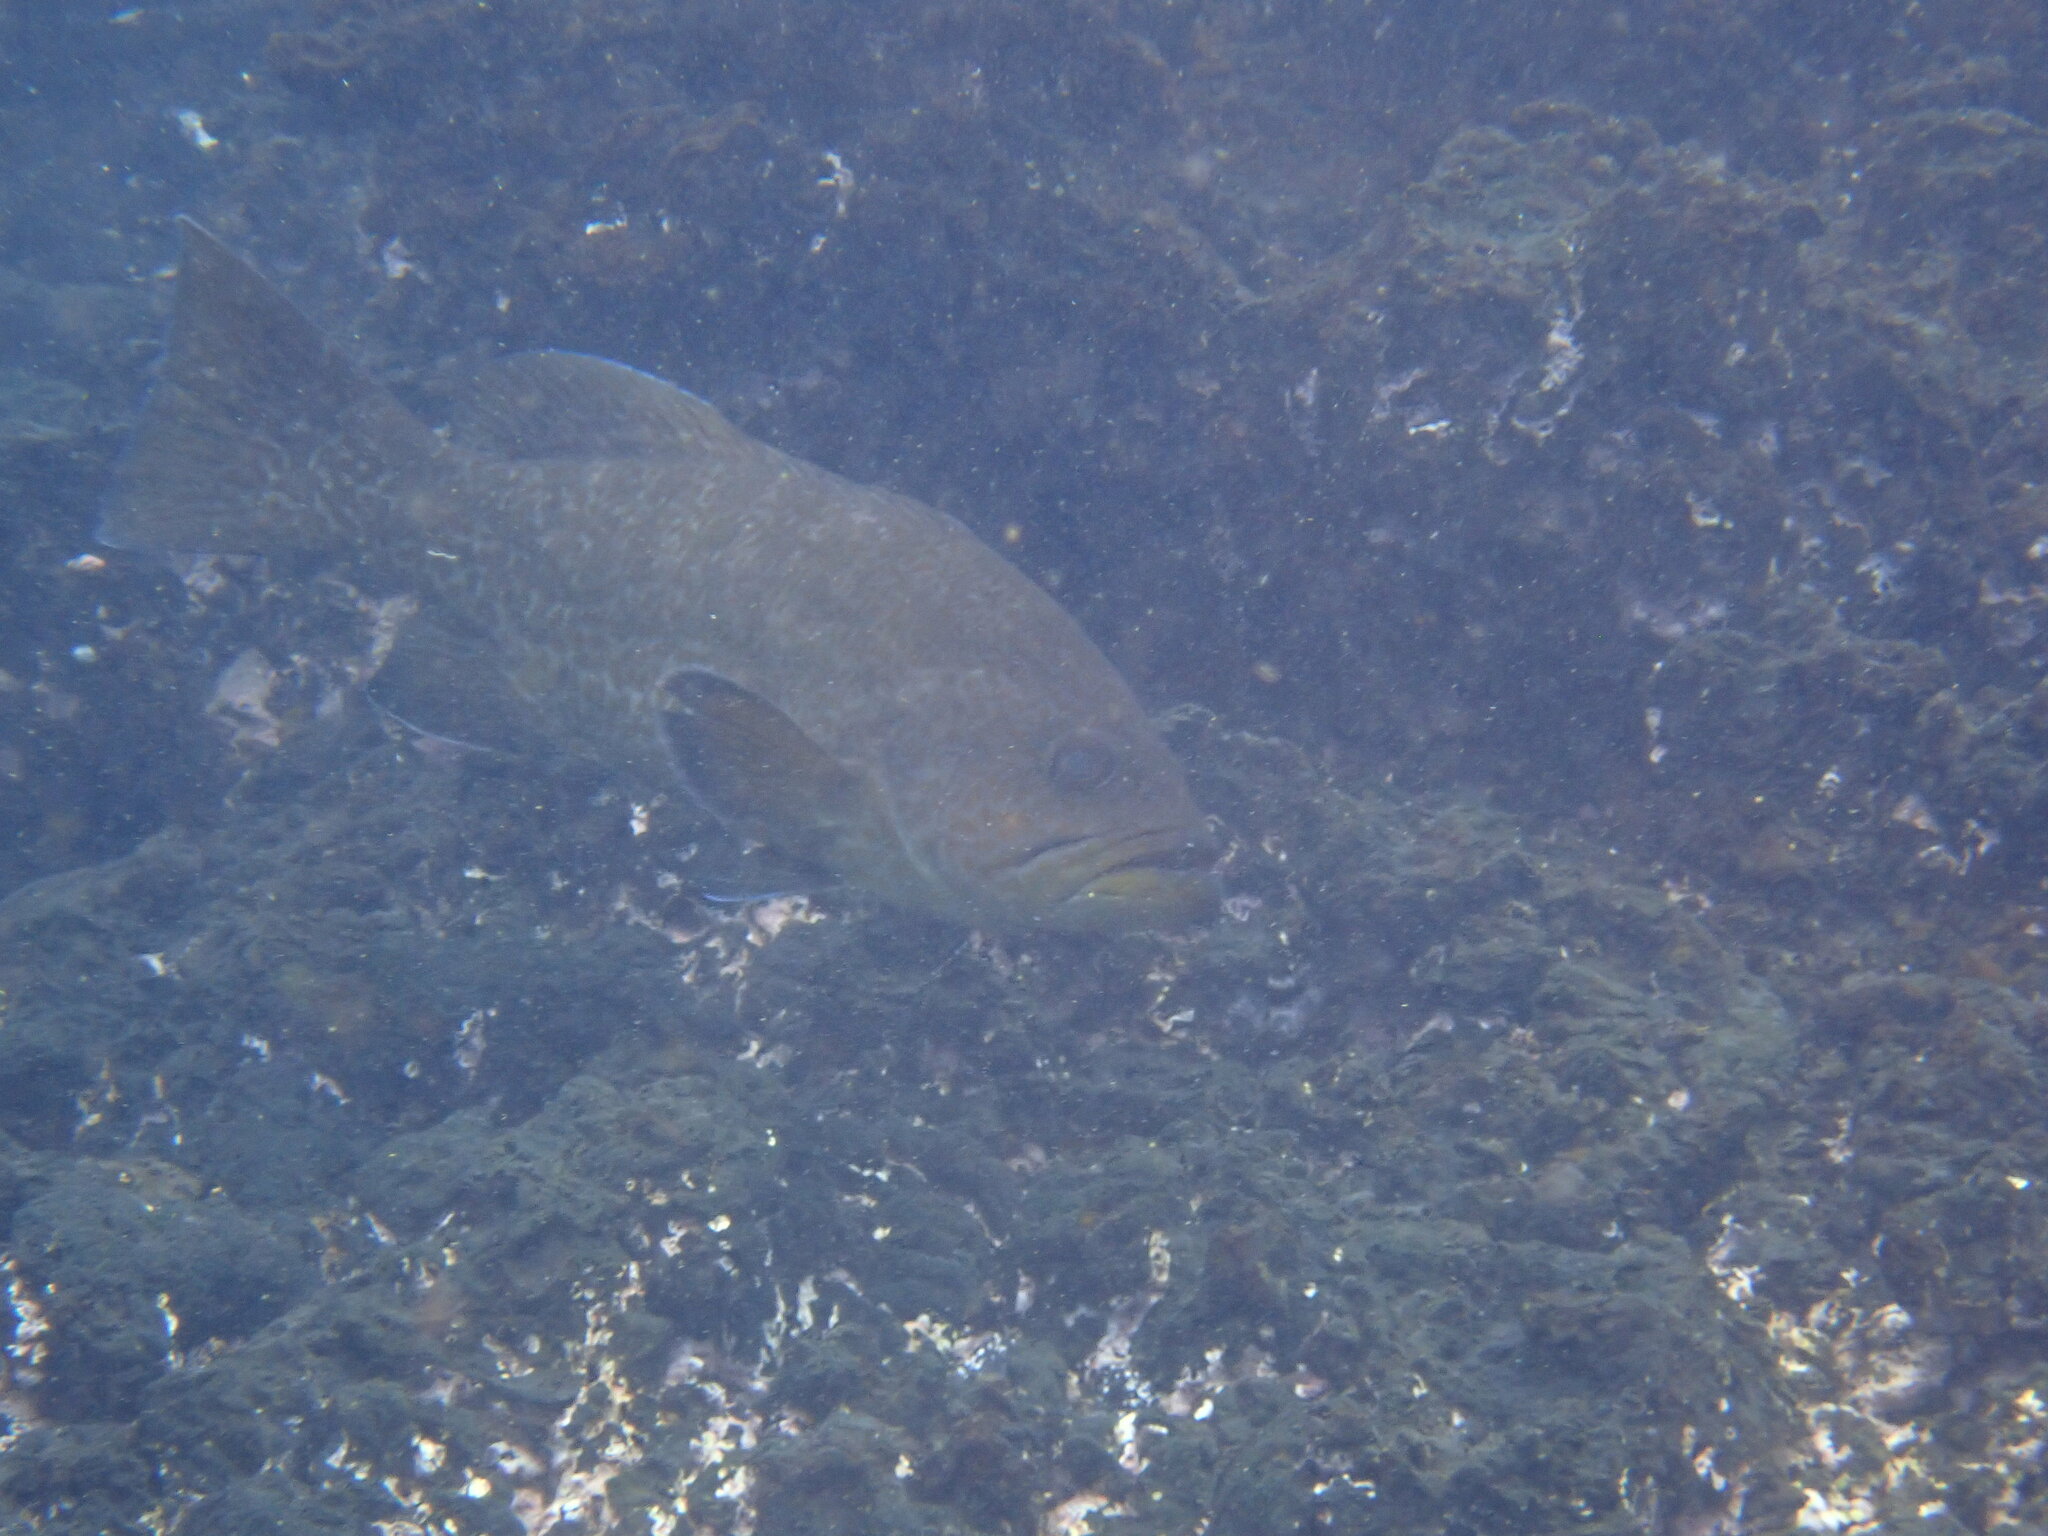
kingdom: Animalia
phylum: Chordata
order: Perciformes
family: Serranidae
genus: Mycteroperca
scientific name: Mycteroperca olfax
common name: Colorado grouper
